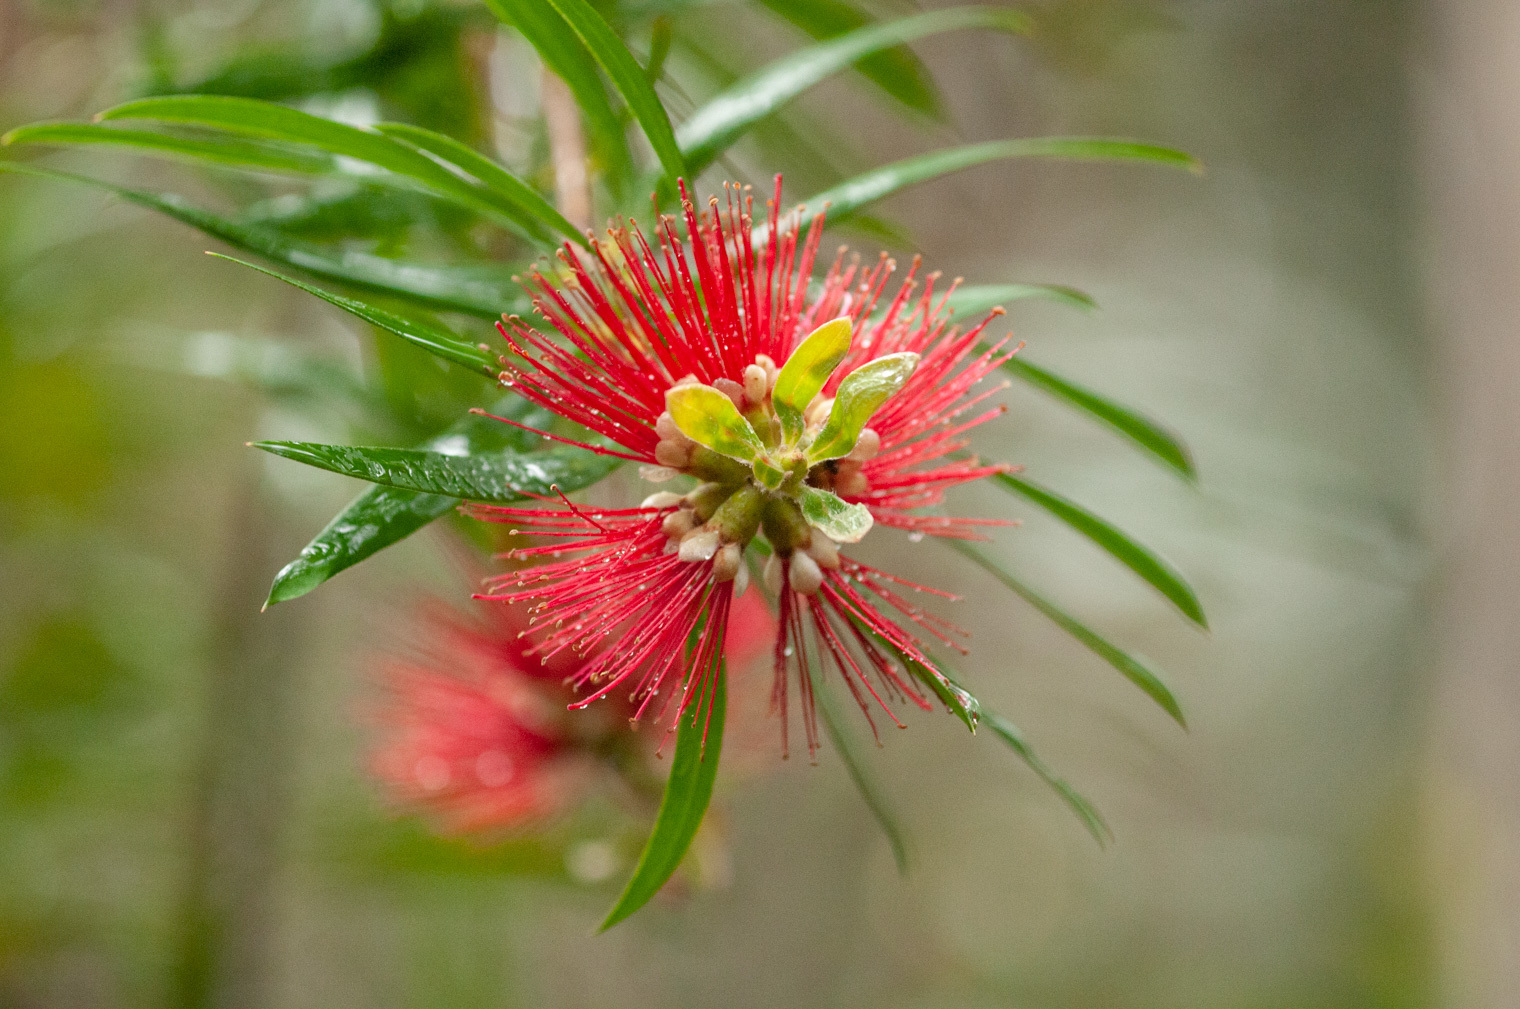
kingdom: Plantae
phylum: Tracheophyta
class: Magnoliopsida
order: Myrtales
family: Myrtaceae
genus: Callistemon
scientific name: Callistemon montanus
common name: Mountain bottlebrush
